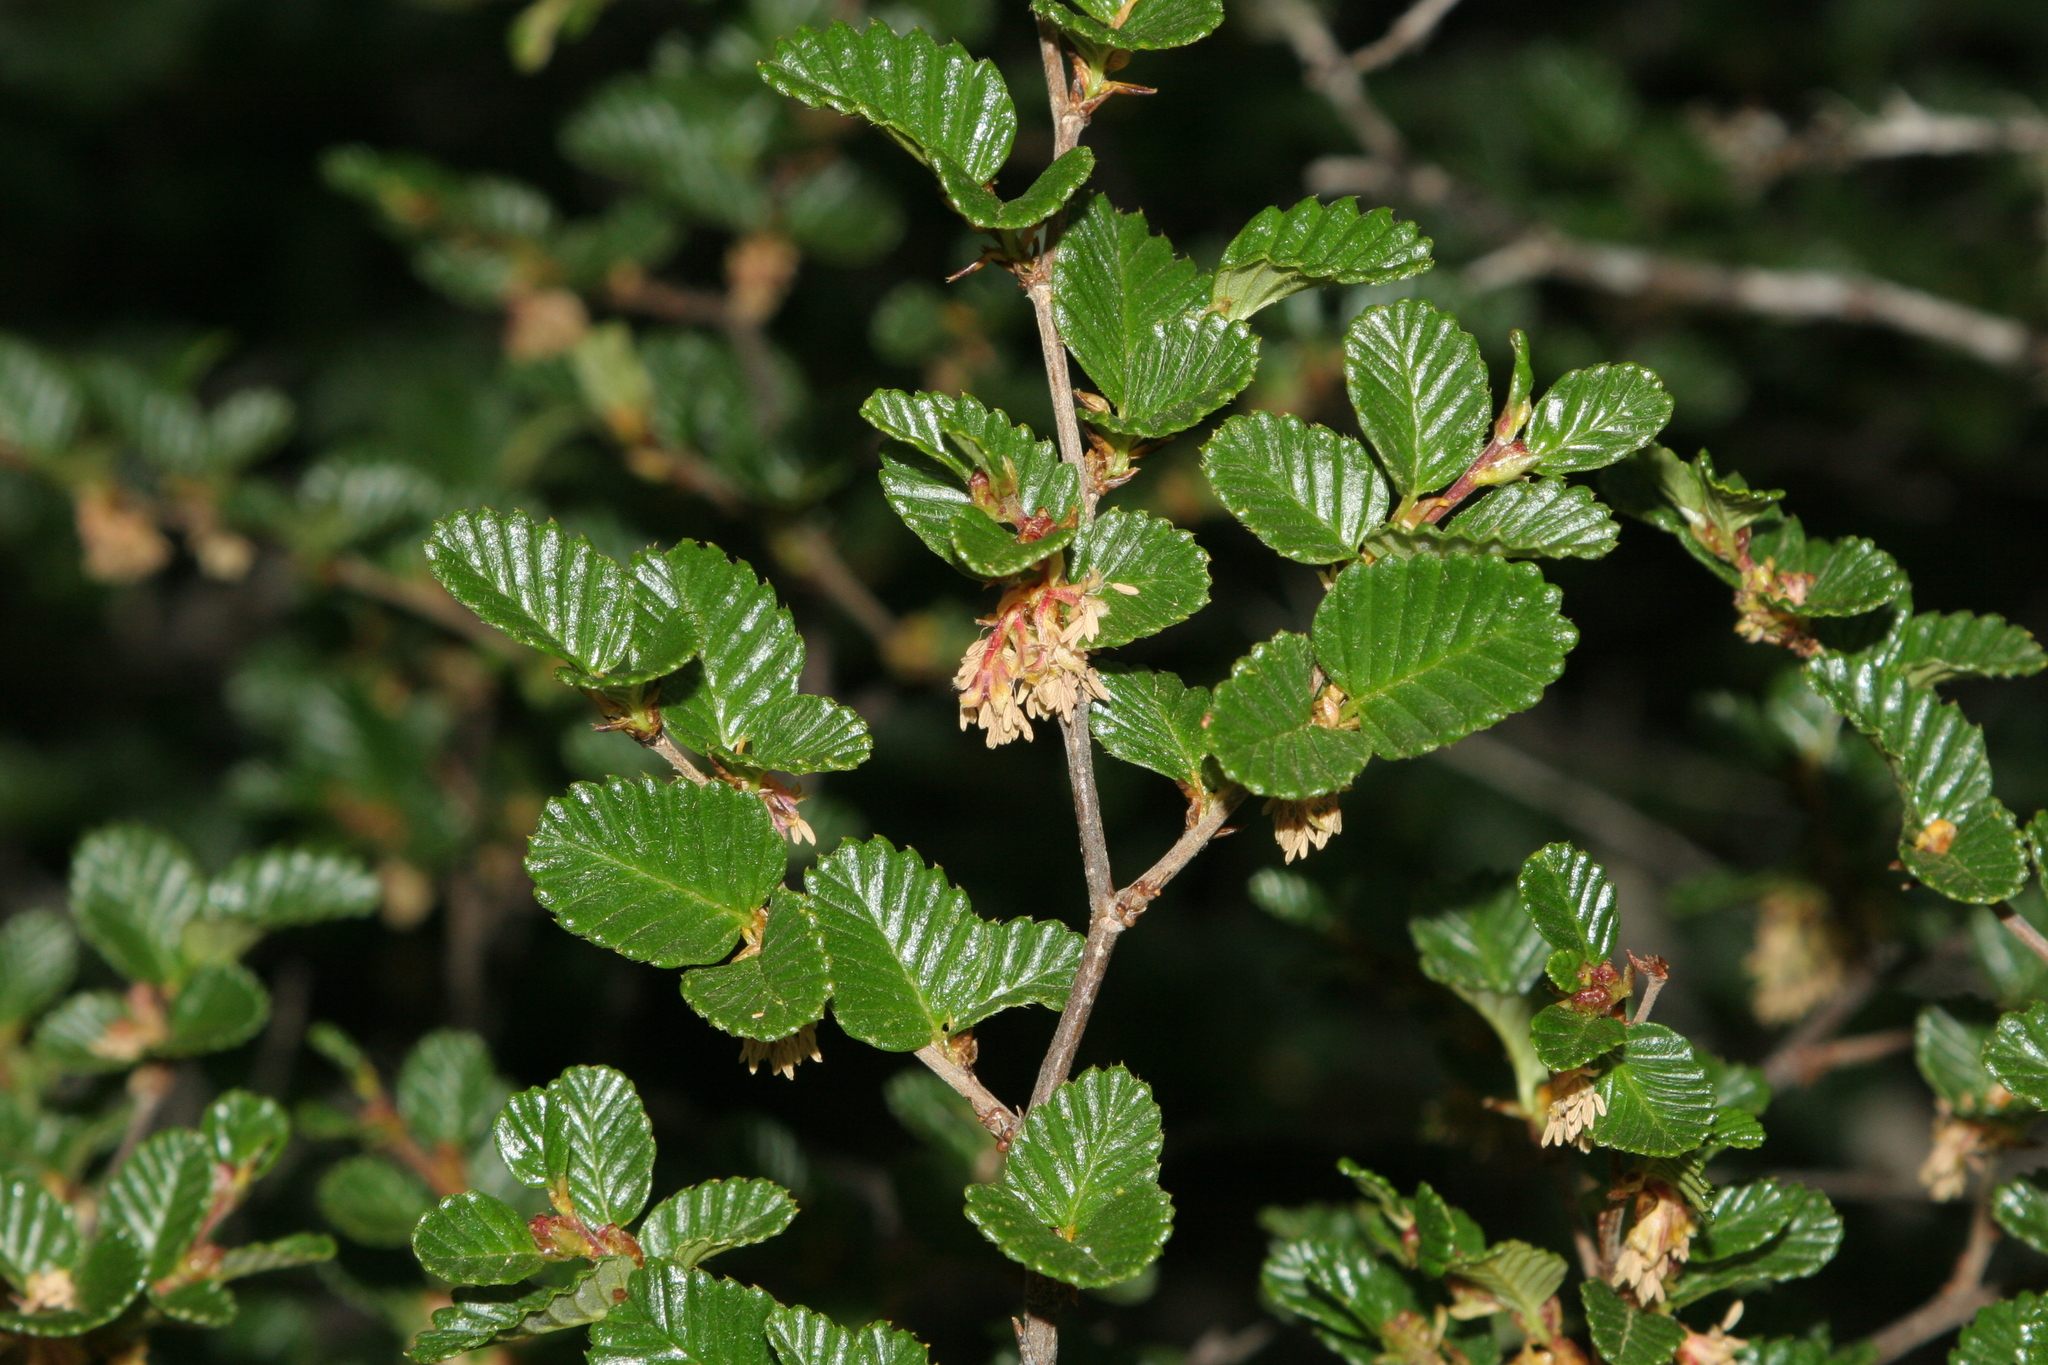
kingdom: Plantae
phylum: Tracheophyta
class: Magnoliopsida
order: Fagales
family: Nothofagaceae
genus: Nothofagus
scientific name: Nothofagus gunnii
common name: Tanglefoot
